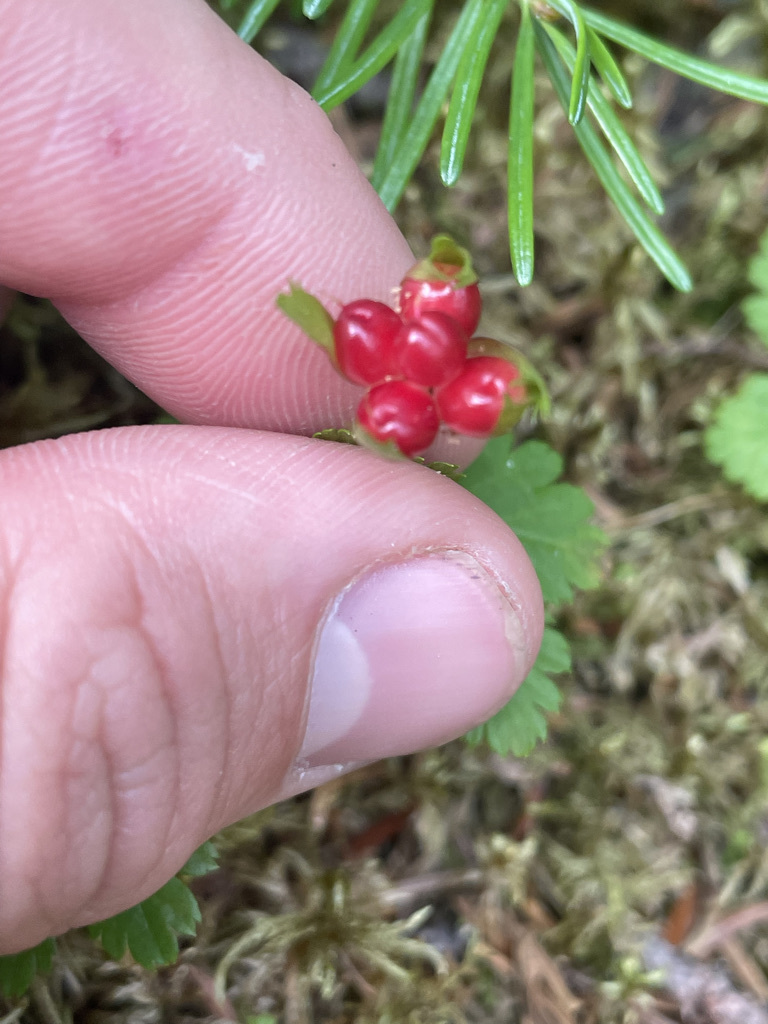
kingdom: Plantae
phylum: Tracheophyta
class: Magnoliopsida
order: Rosales
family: Rosaceae
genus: Rubus
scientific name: Rubus pedatus
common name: Creeping raspberry
